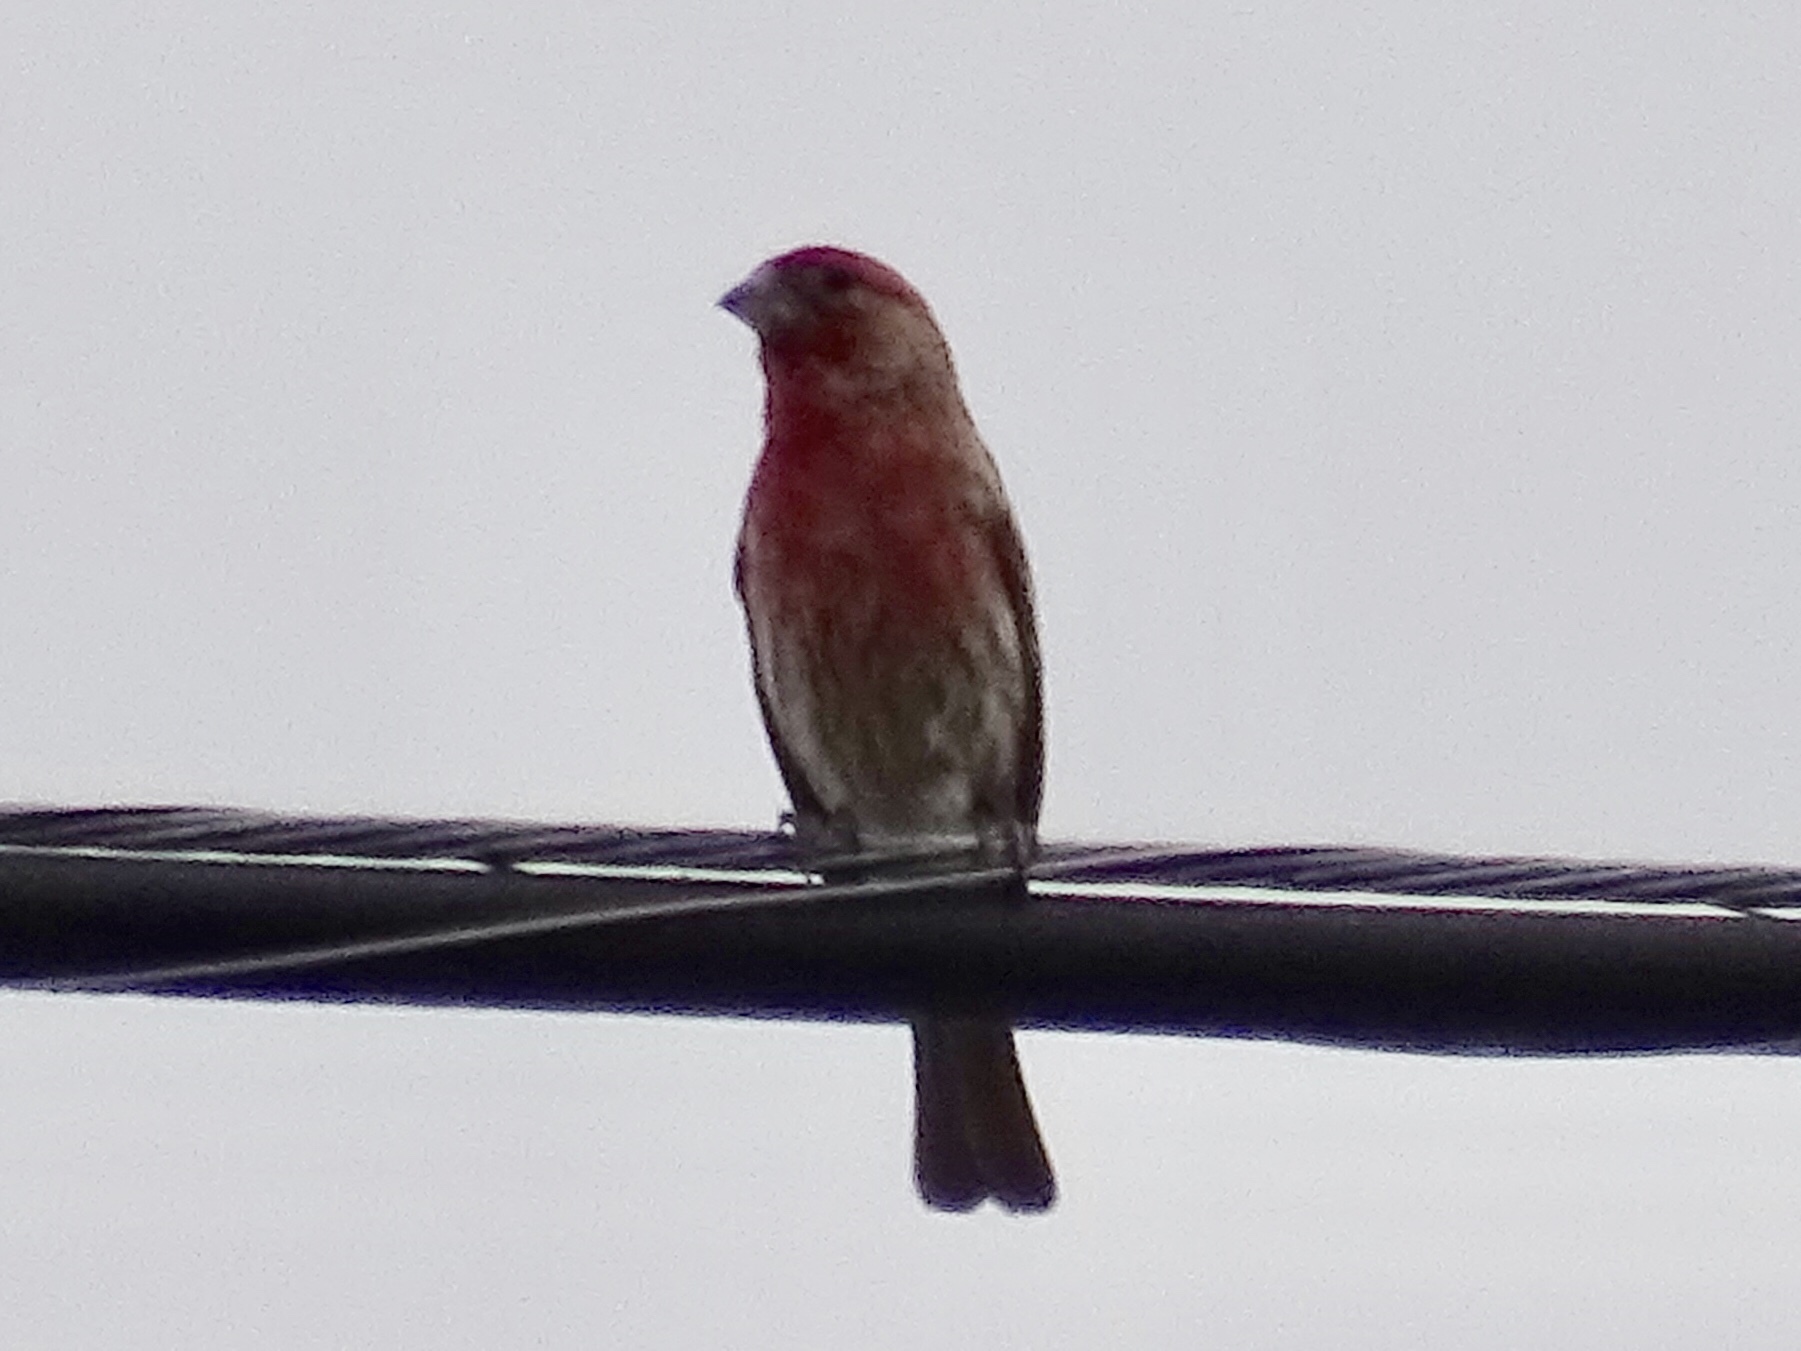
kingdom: Animalia
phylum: Chordata
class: Aves
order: Passeriformes
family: Fringillidae
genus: Haemorhous
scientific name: Haemorhous mexicanus
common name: House finch
